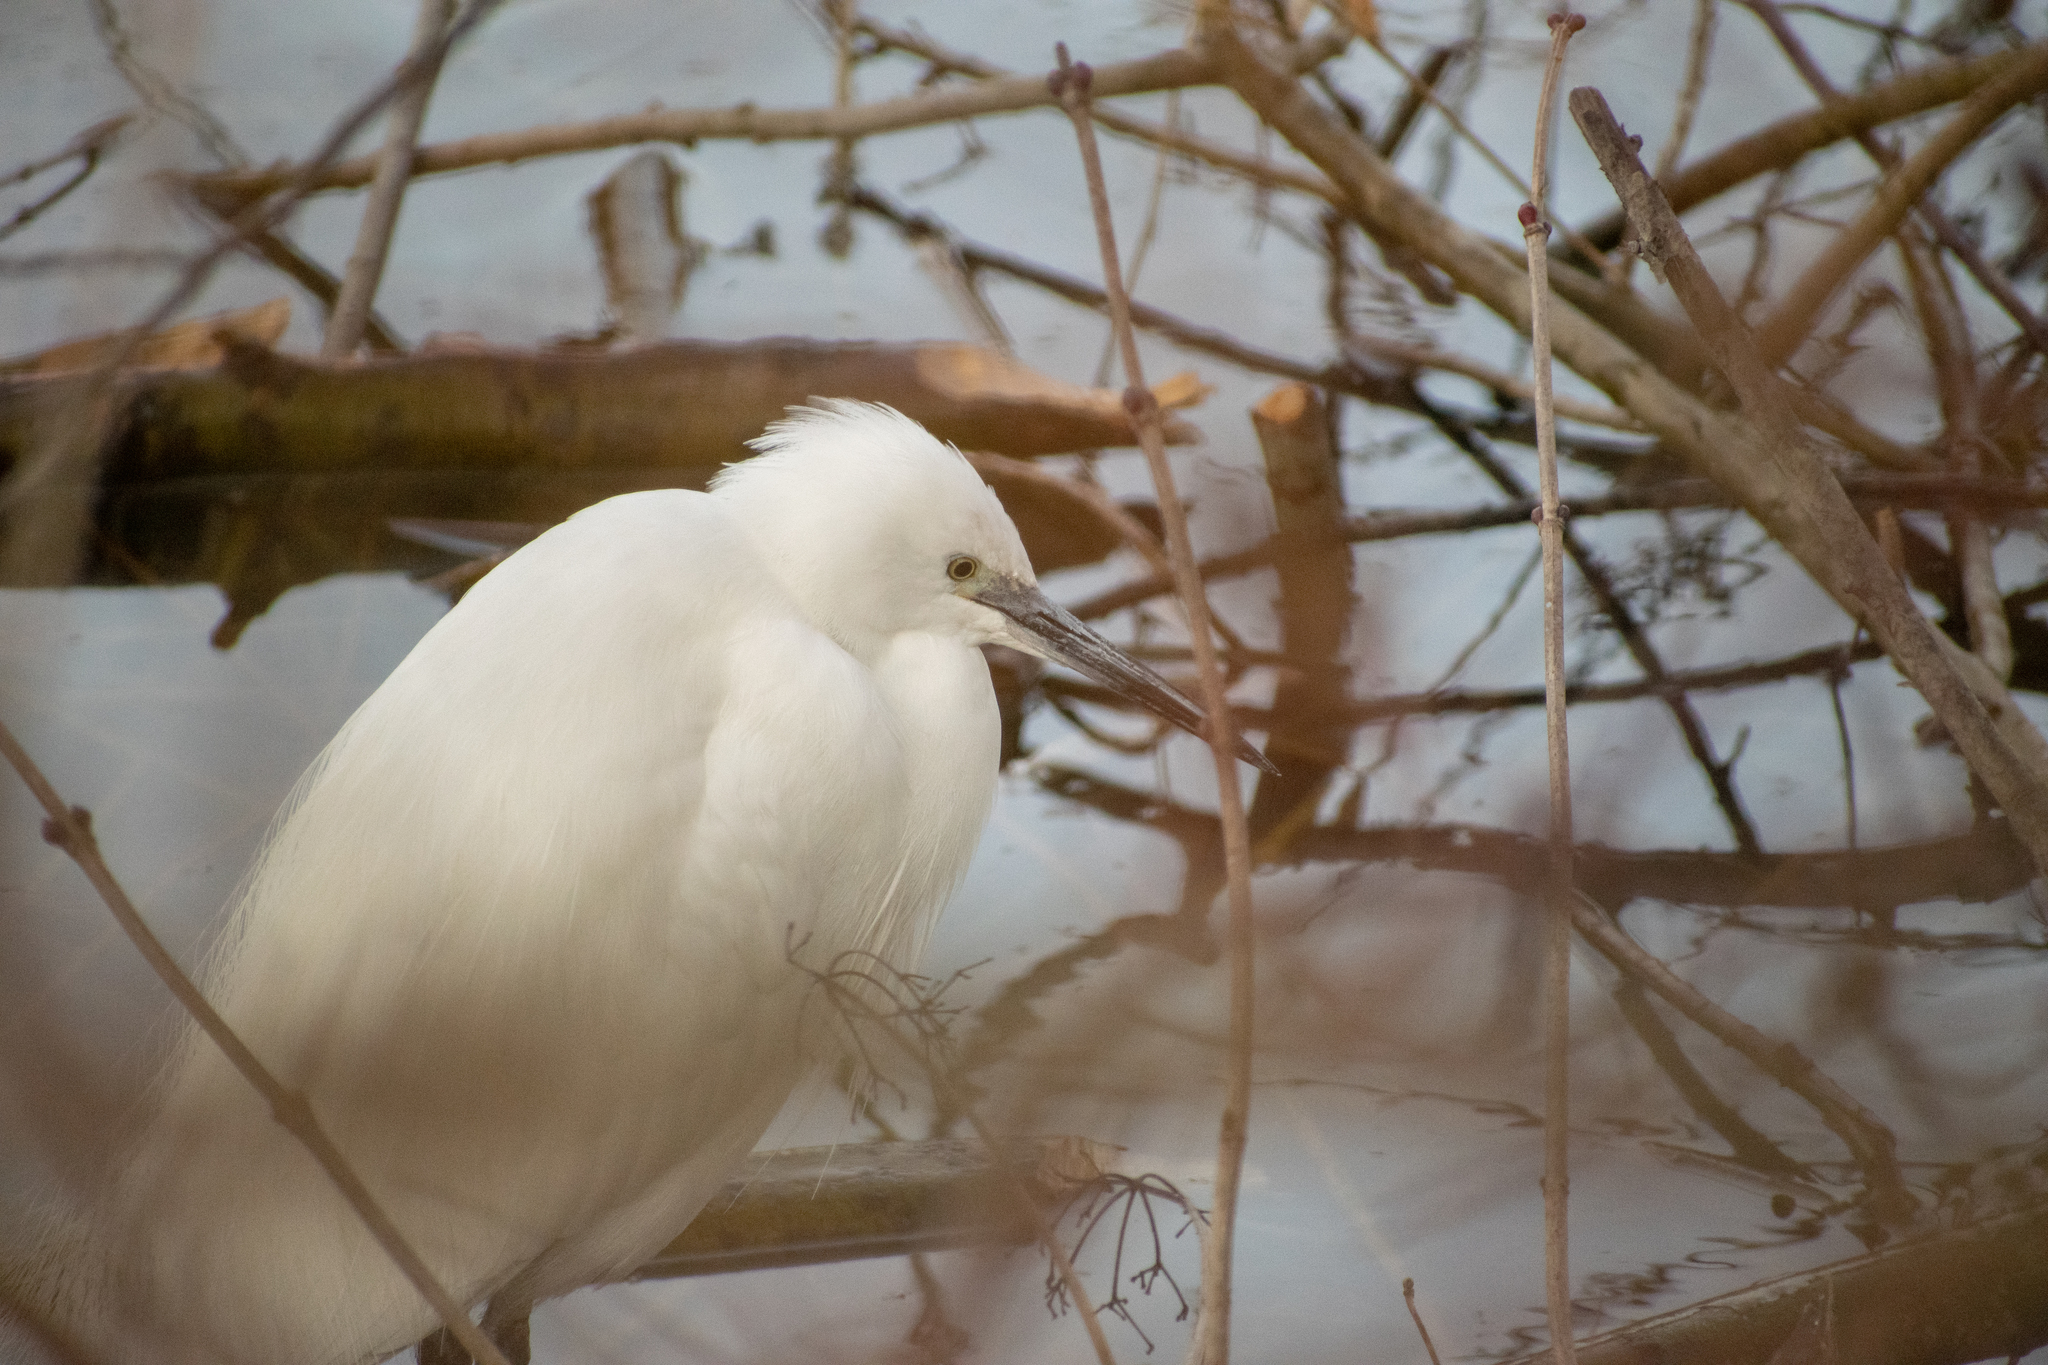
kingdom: Animalia
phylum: Chordata
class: Aves
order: Pelecaniformes
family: Ardeidae
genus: Egretta
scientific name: Egretta garzetta
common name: Little egret
